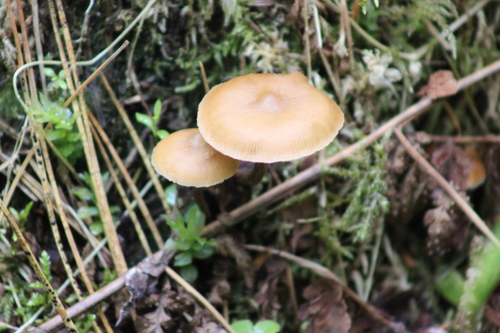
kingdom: Fungi
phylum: Basidiomycota
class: Agaricomycetes
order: Agaricales
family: Strophariaceae
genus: Pholiota
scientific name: Pholiota lignicola
